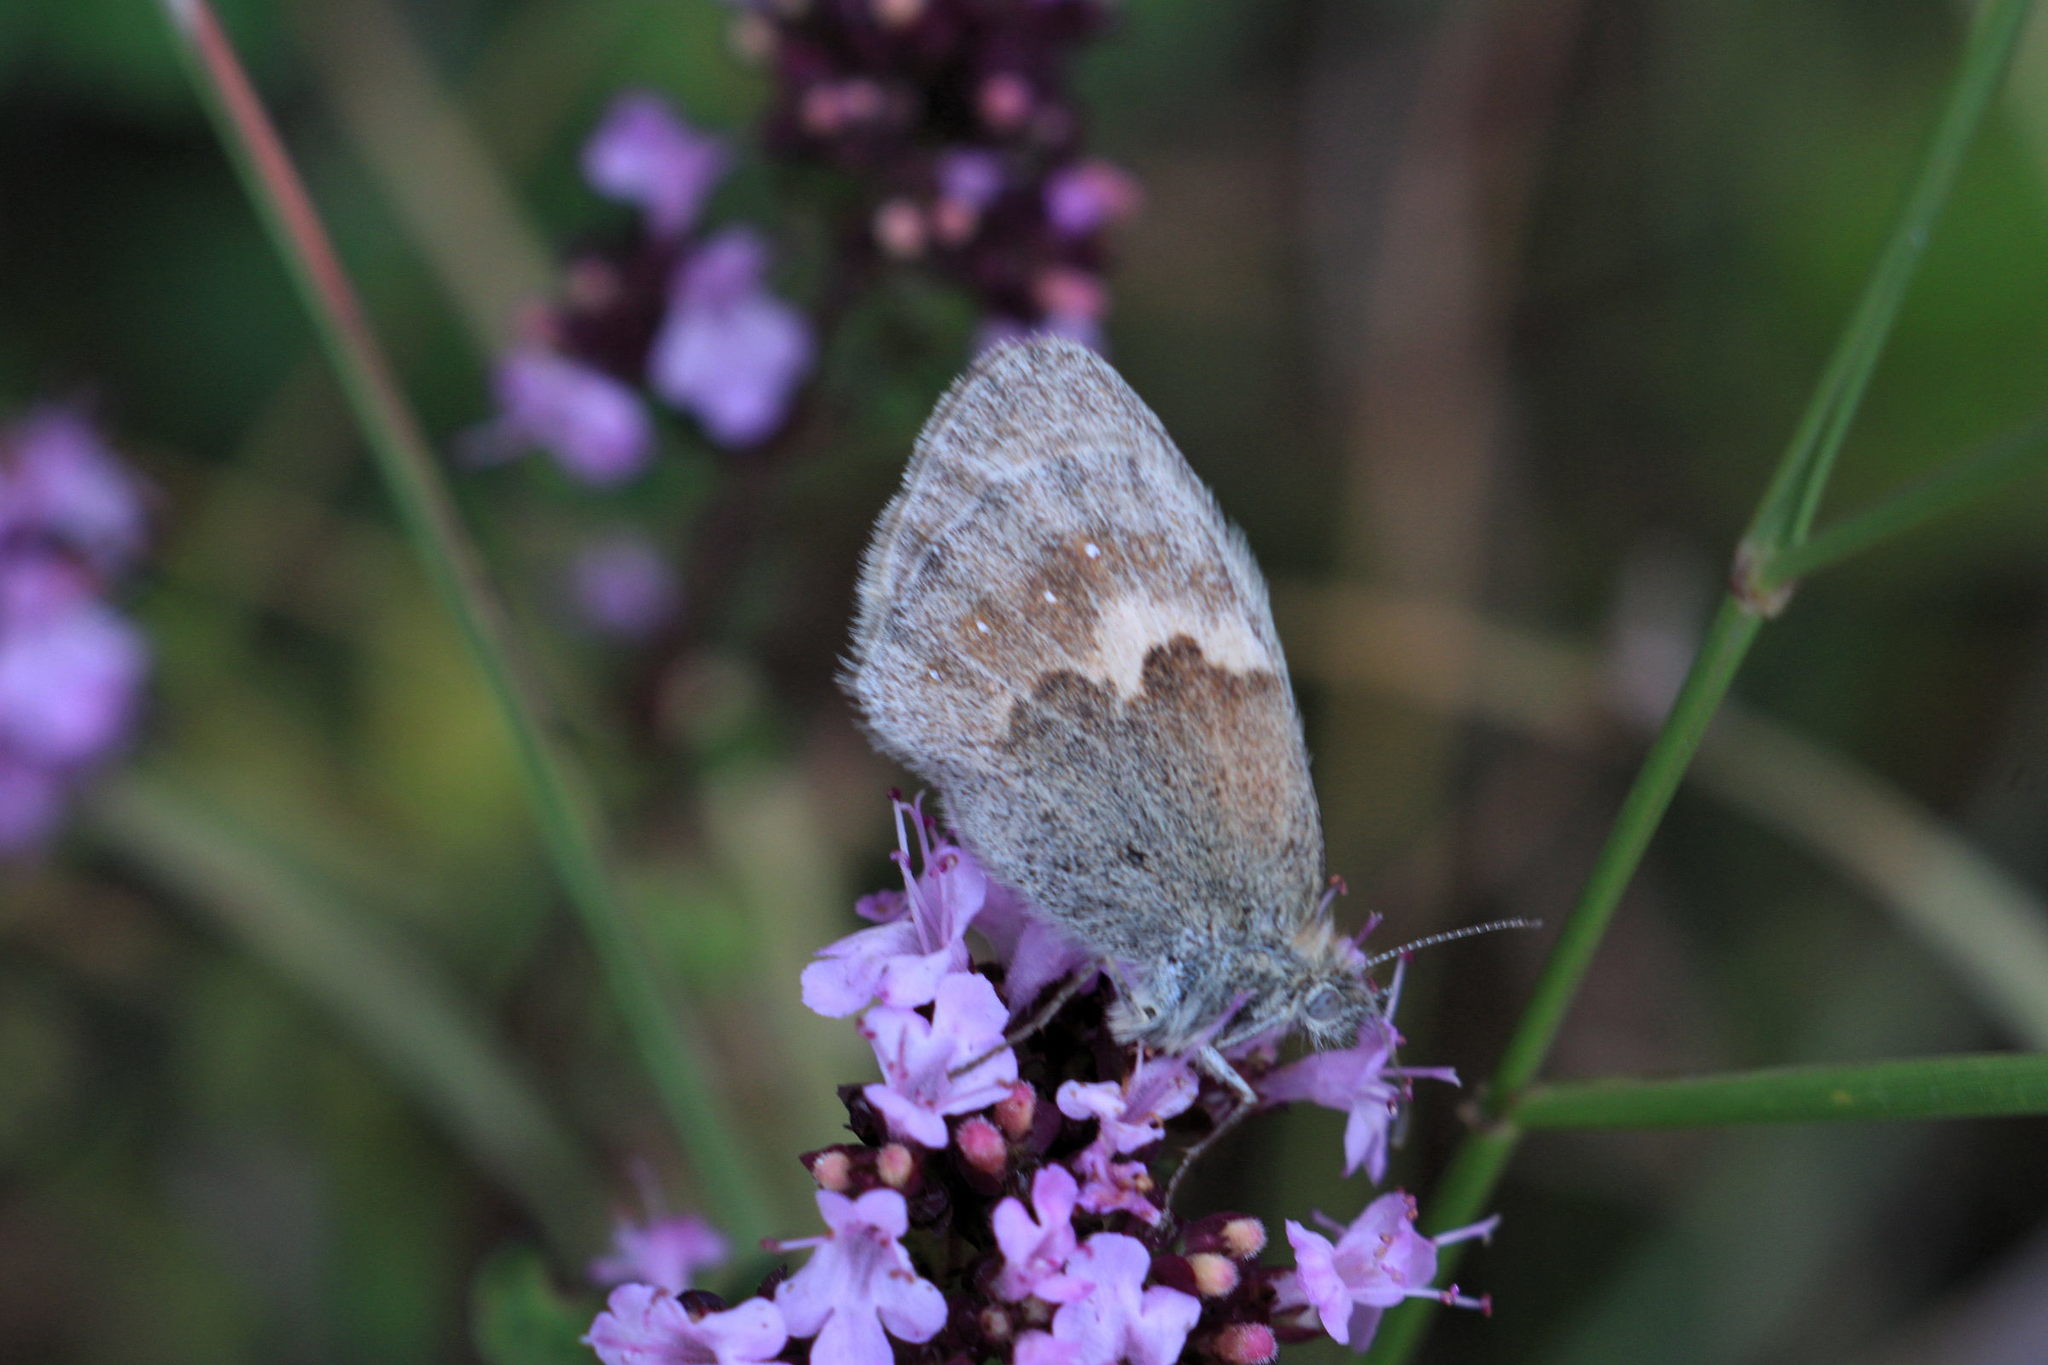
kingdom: Animalia
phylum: Arthropoda
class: Insecta
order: Lepidoptera
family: Nymphalidae
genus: Coenonympha
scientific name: Coenonympha pamphilus
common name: Small heath
